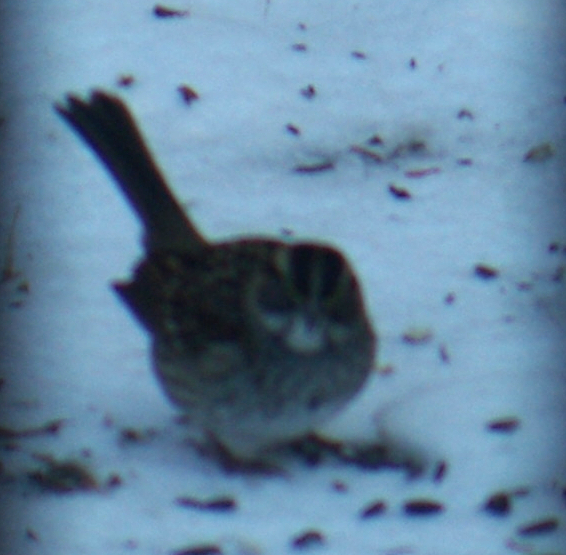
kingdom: Animalia
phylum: Chordata
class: Aves
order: Passeriformes
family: Passerellidae
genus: Zonotrichia
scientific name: Zonotrichia albicollis
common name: White-throated sparrow
